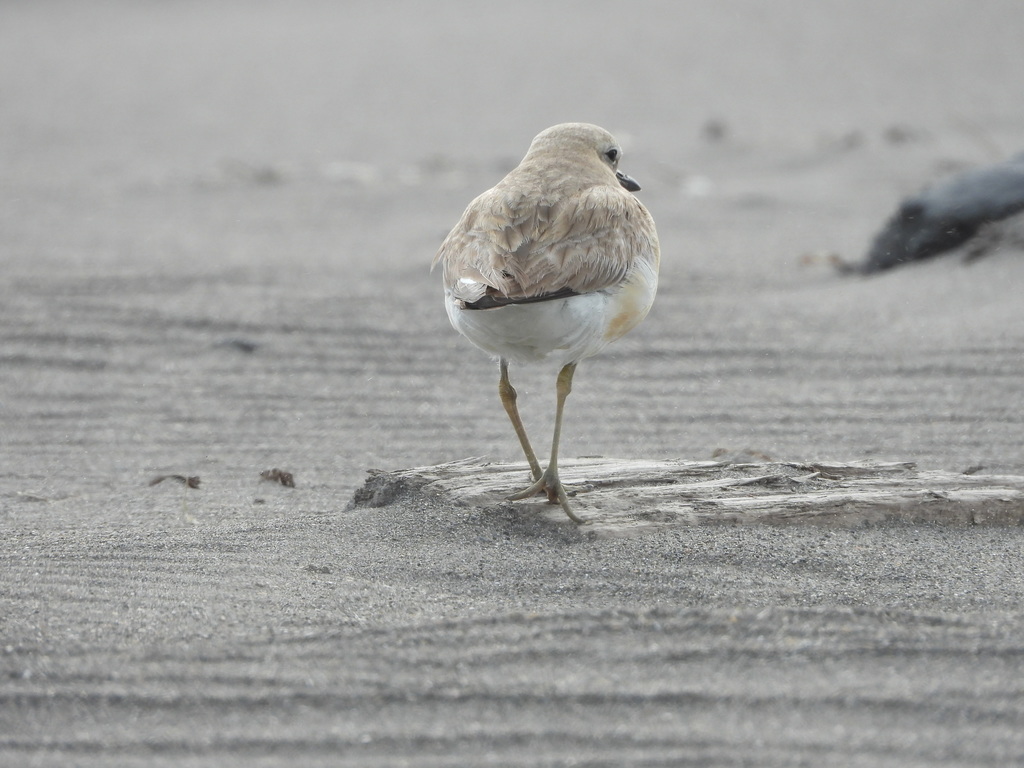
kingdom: Animalia
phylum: Chordata
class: Aves
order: Charadriiformes
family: Charadriidae
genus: Anarhynchus
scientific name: Anarhynchus
